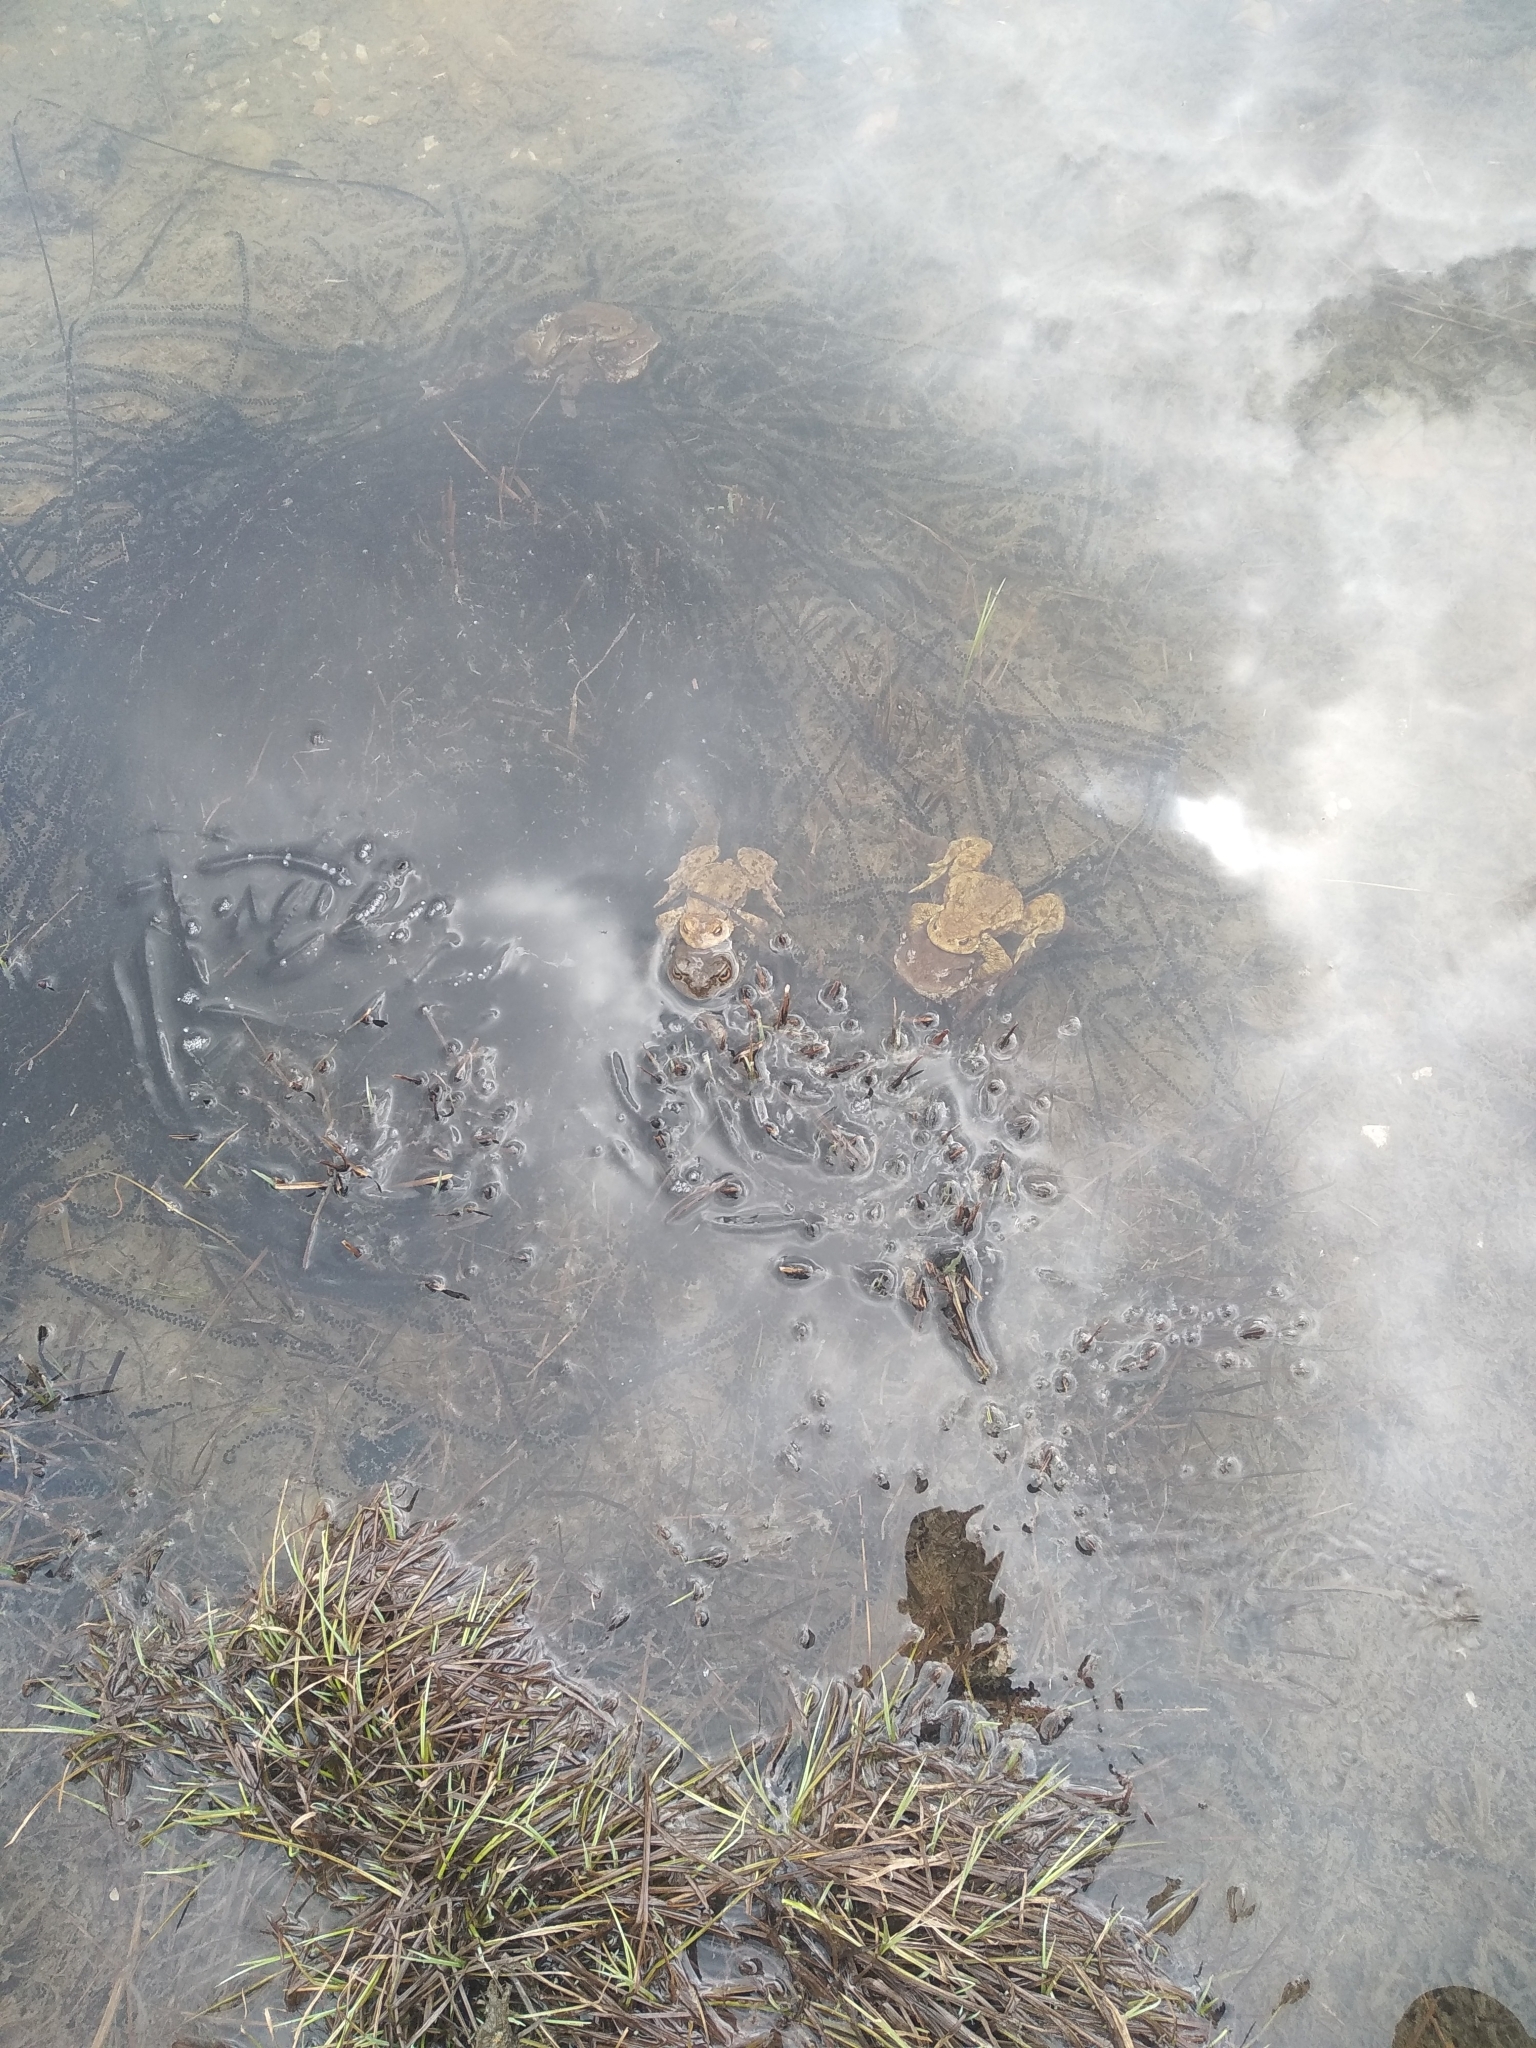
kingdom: Animalia
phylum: Chordata
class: Amphibia
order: Anura
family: Bufonidae
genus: Bufo
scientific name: Bufo bufo
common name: Common toad
